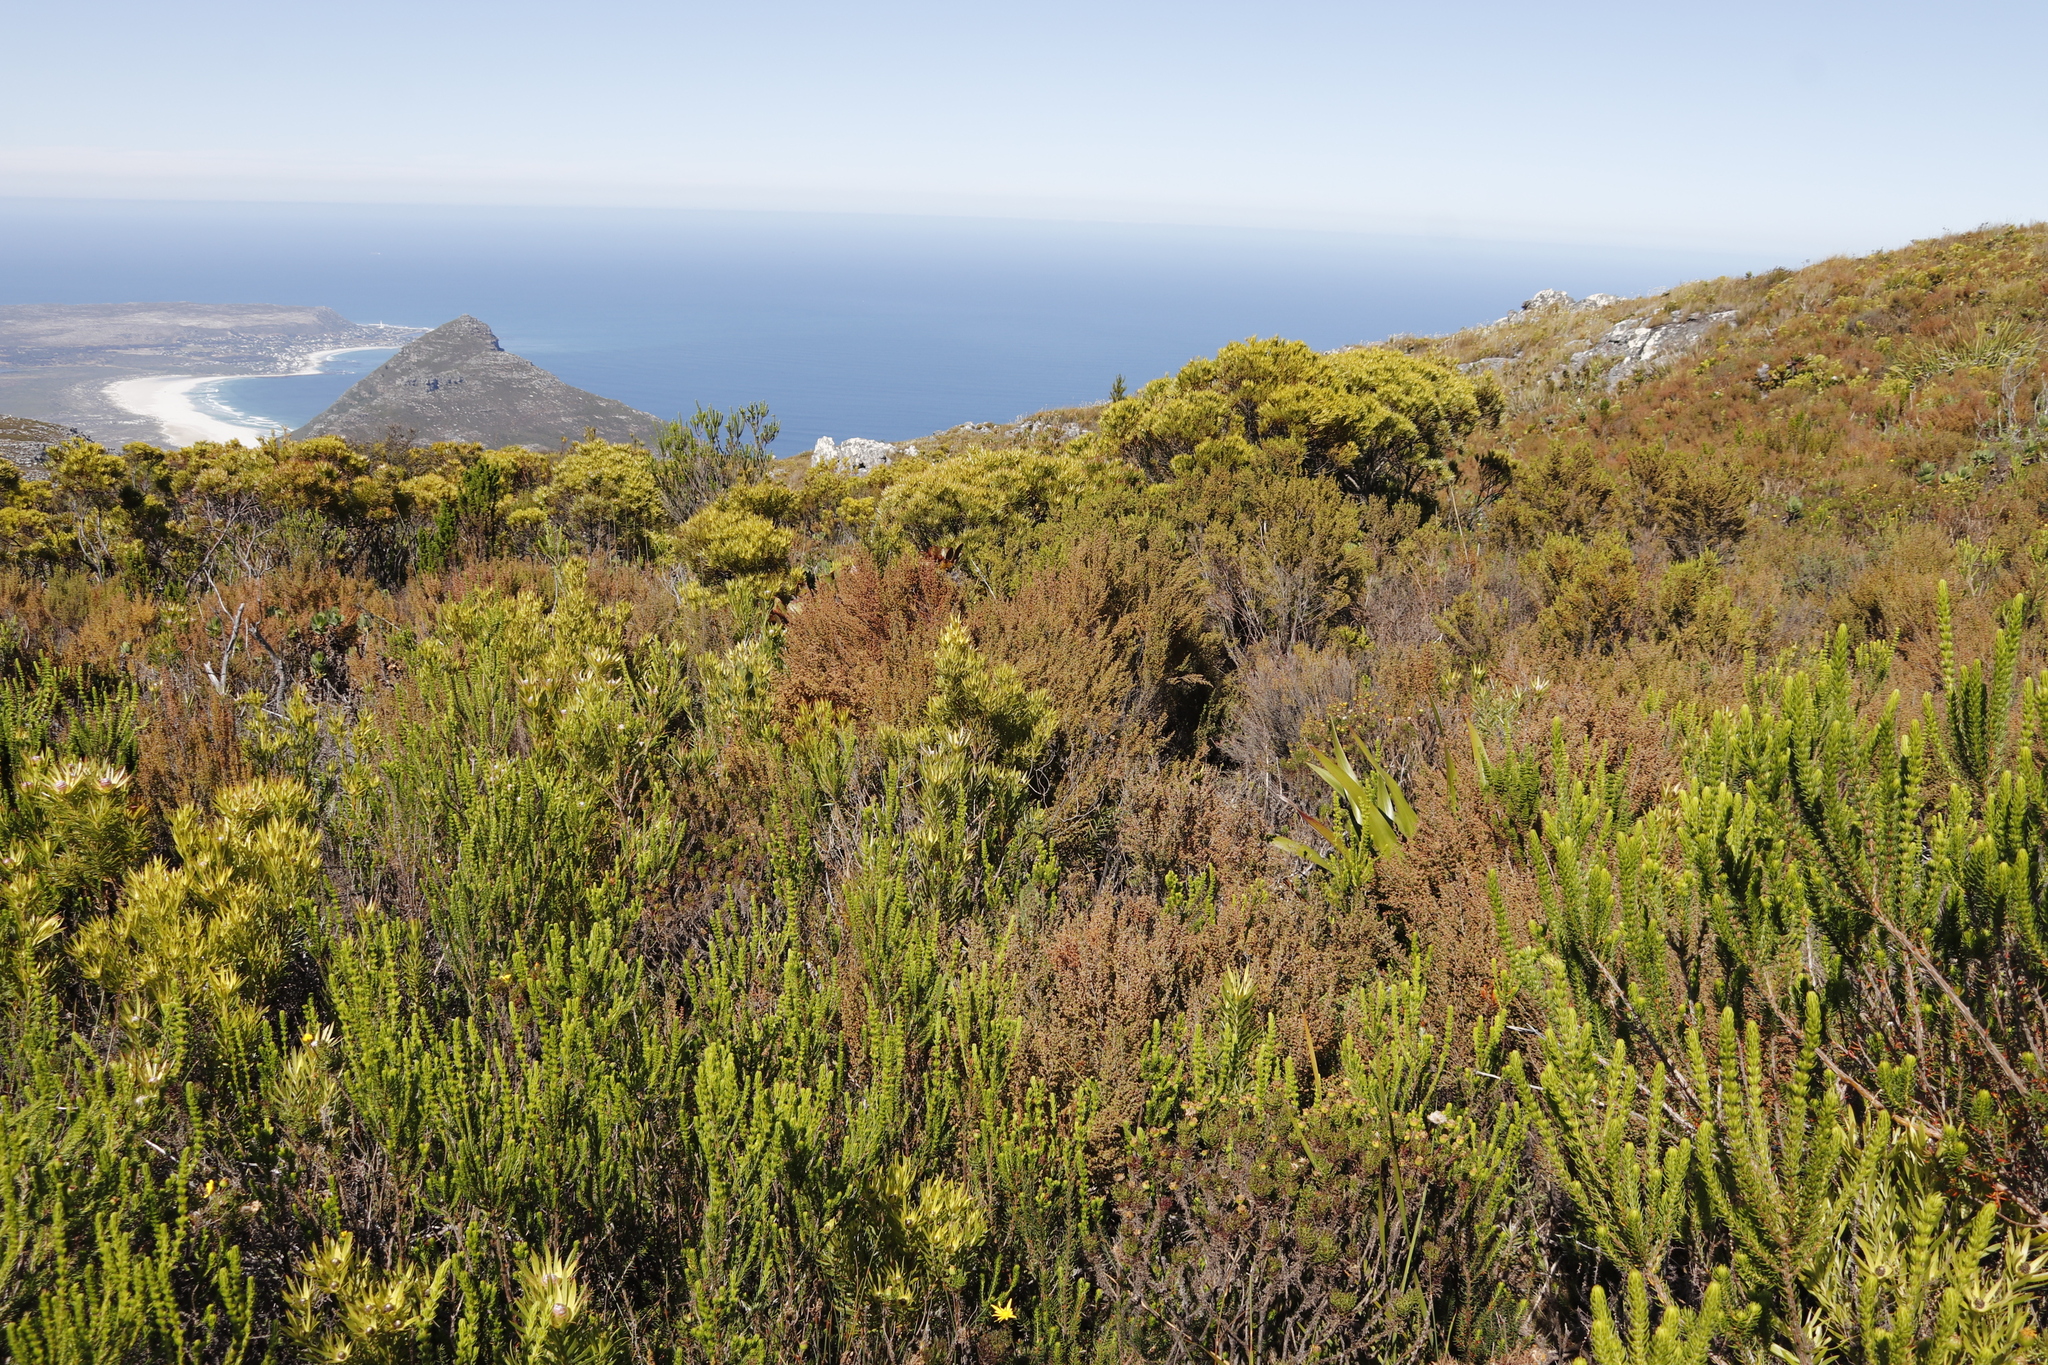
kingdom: Plantae
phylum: Tracheophyta
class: Magnoliopsida
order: Ericales
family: Ericaceae
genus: Erica
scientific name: Erica hispidula
